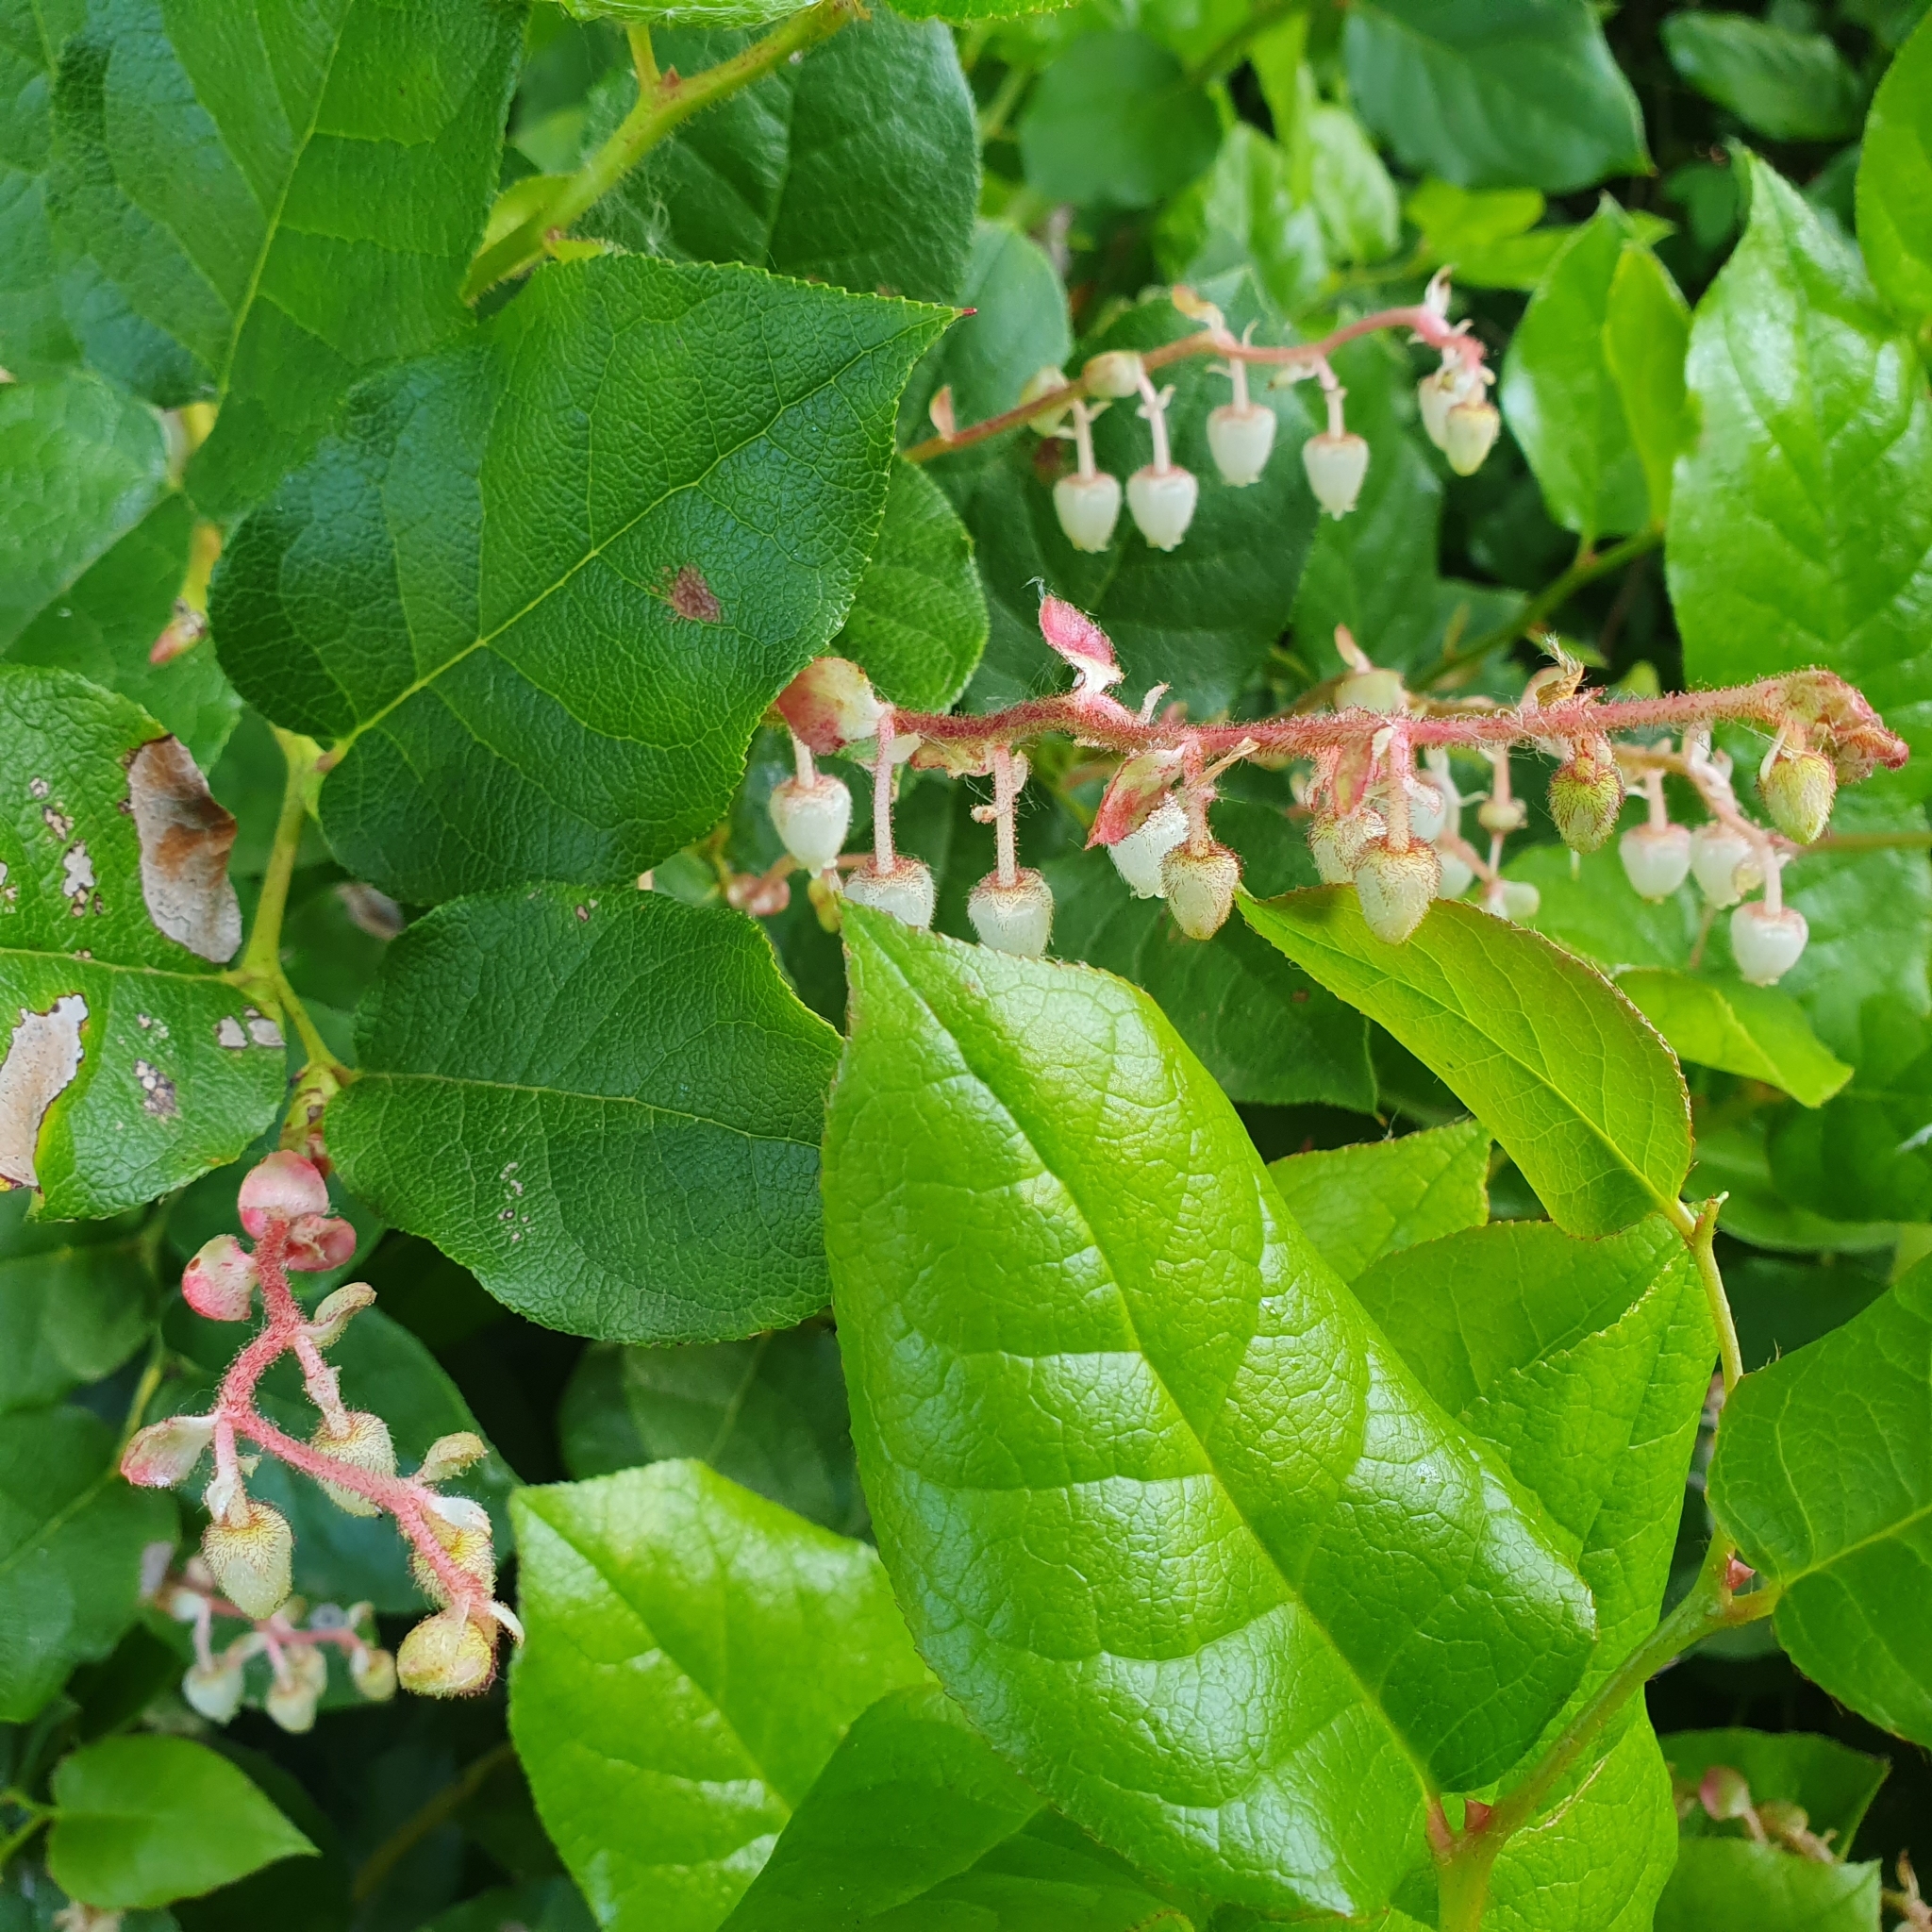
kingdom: Plantae
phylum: Tracheophyta
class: Magnoliopsida
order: Ericales
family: Ericaceae
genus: Gaultheria
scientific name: Gaultheria shallon
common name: Shallon
